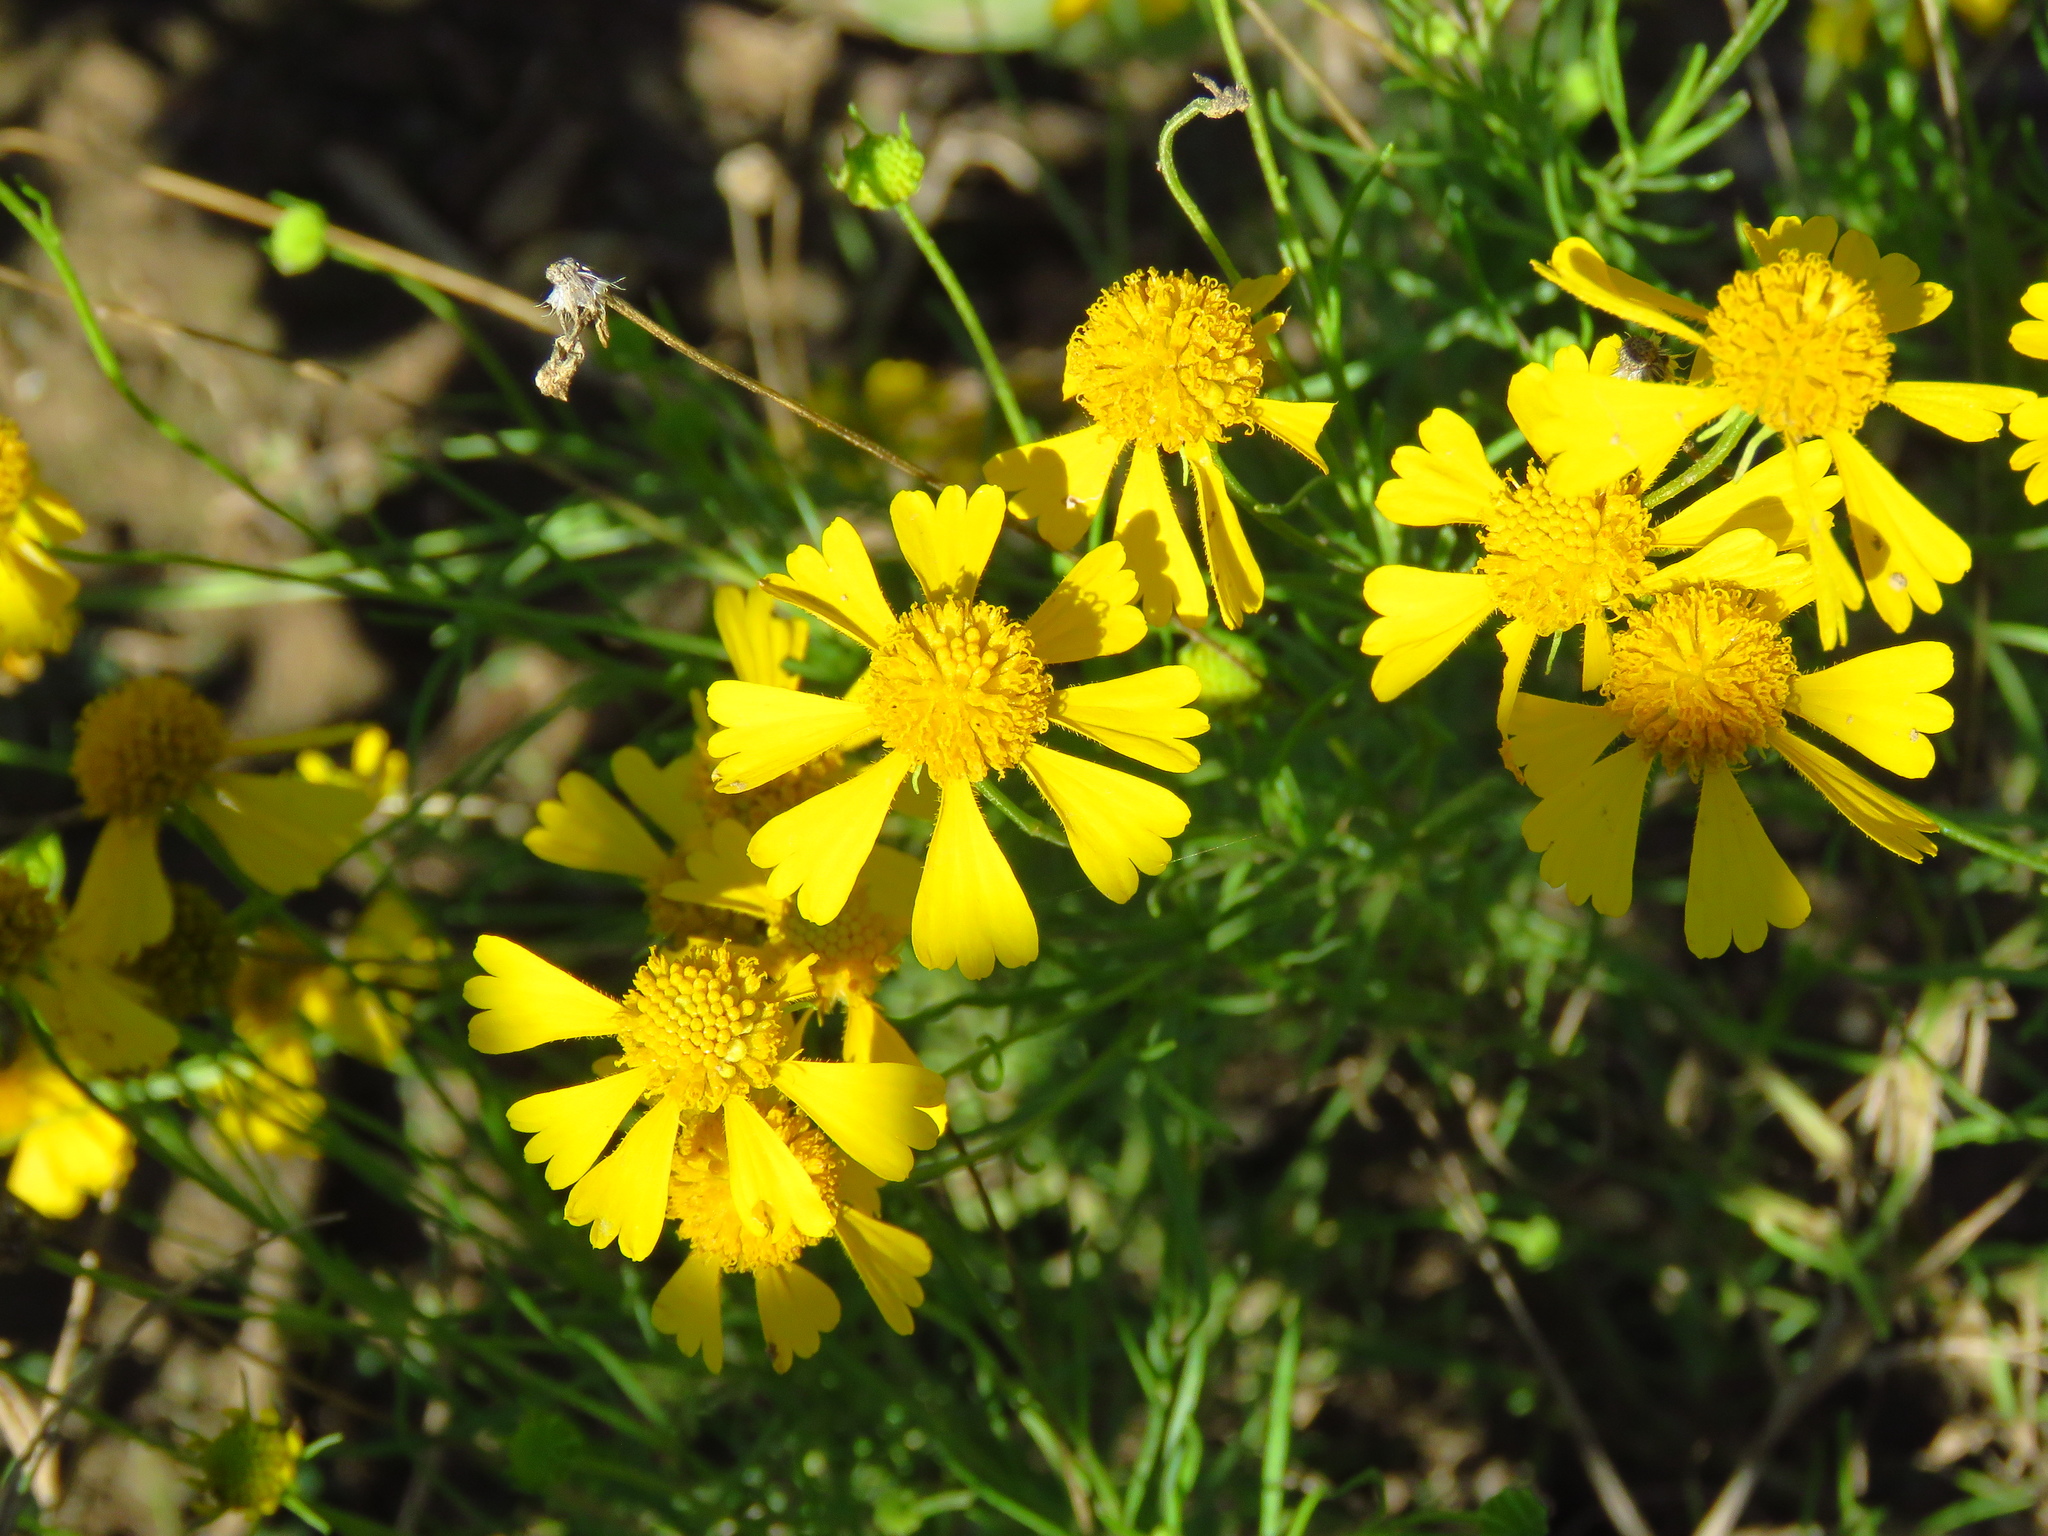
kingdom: Plantae
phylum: Tracheophyta
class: Magnoliopsida
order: Asterales
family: Asteraceae
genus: Helenium
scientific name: Helenium amarum
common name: Bitter sneezeweed
